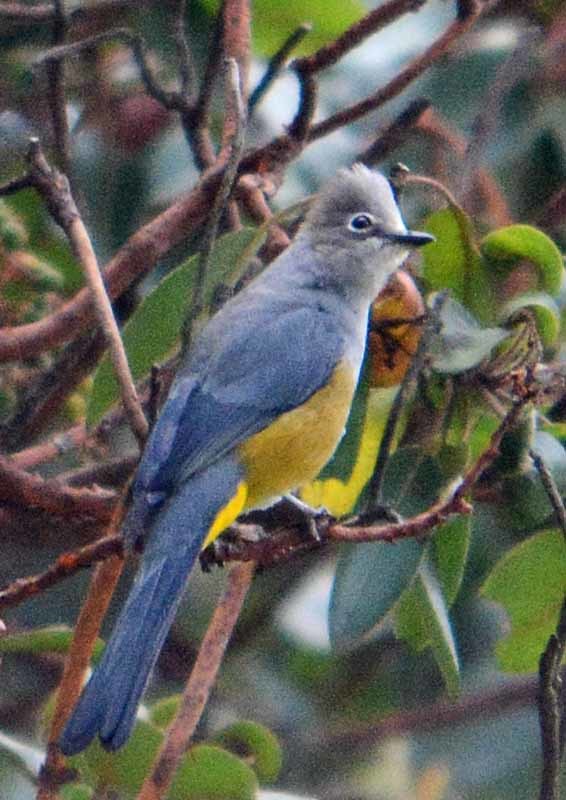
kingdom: Animalia
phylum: Chordata
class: Aves
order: Passeriformes
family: Ptilogonatidae
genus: Ptilogonys
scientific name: Ptilogonys cinereus
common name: Gray silky-flycatcher
